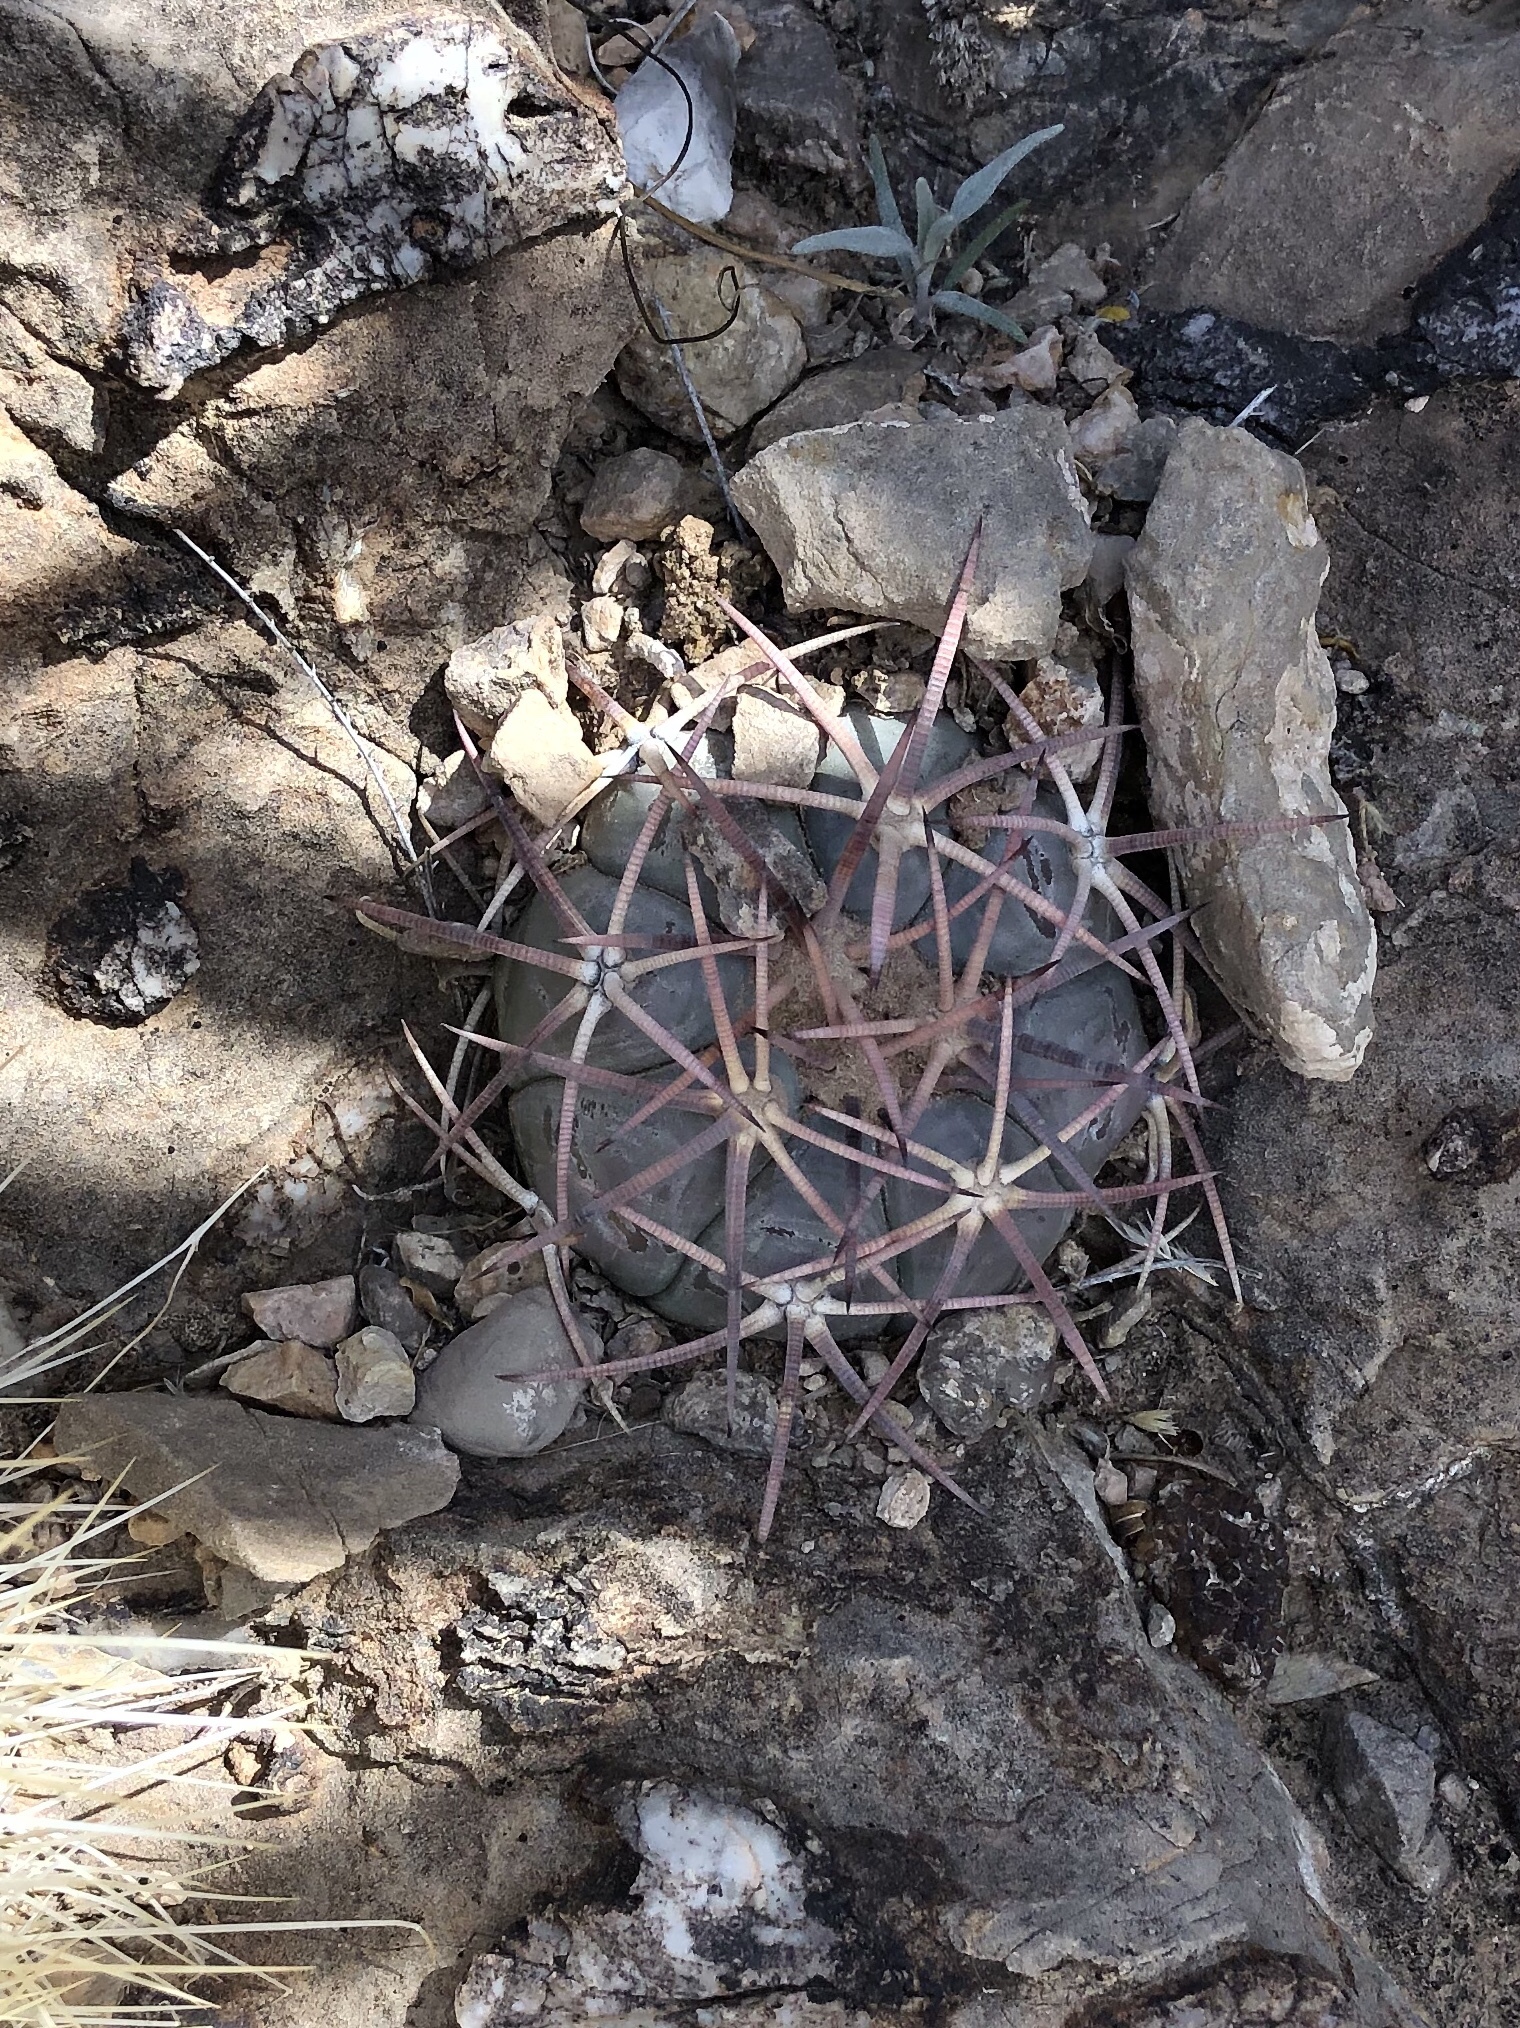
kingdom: Plantae
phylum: Tracheophyta
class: Magnoliopsida
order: Caryophyllales
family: Cactaceae
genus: Echinocactus
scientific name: Echinocactus horizonthalonius
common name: Devilshead
